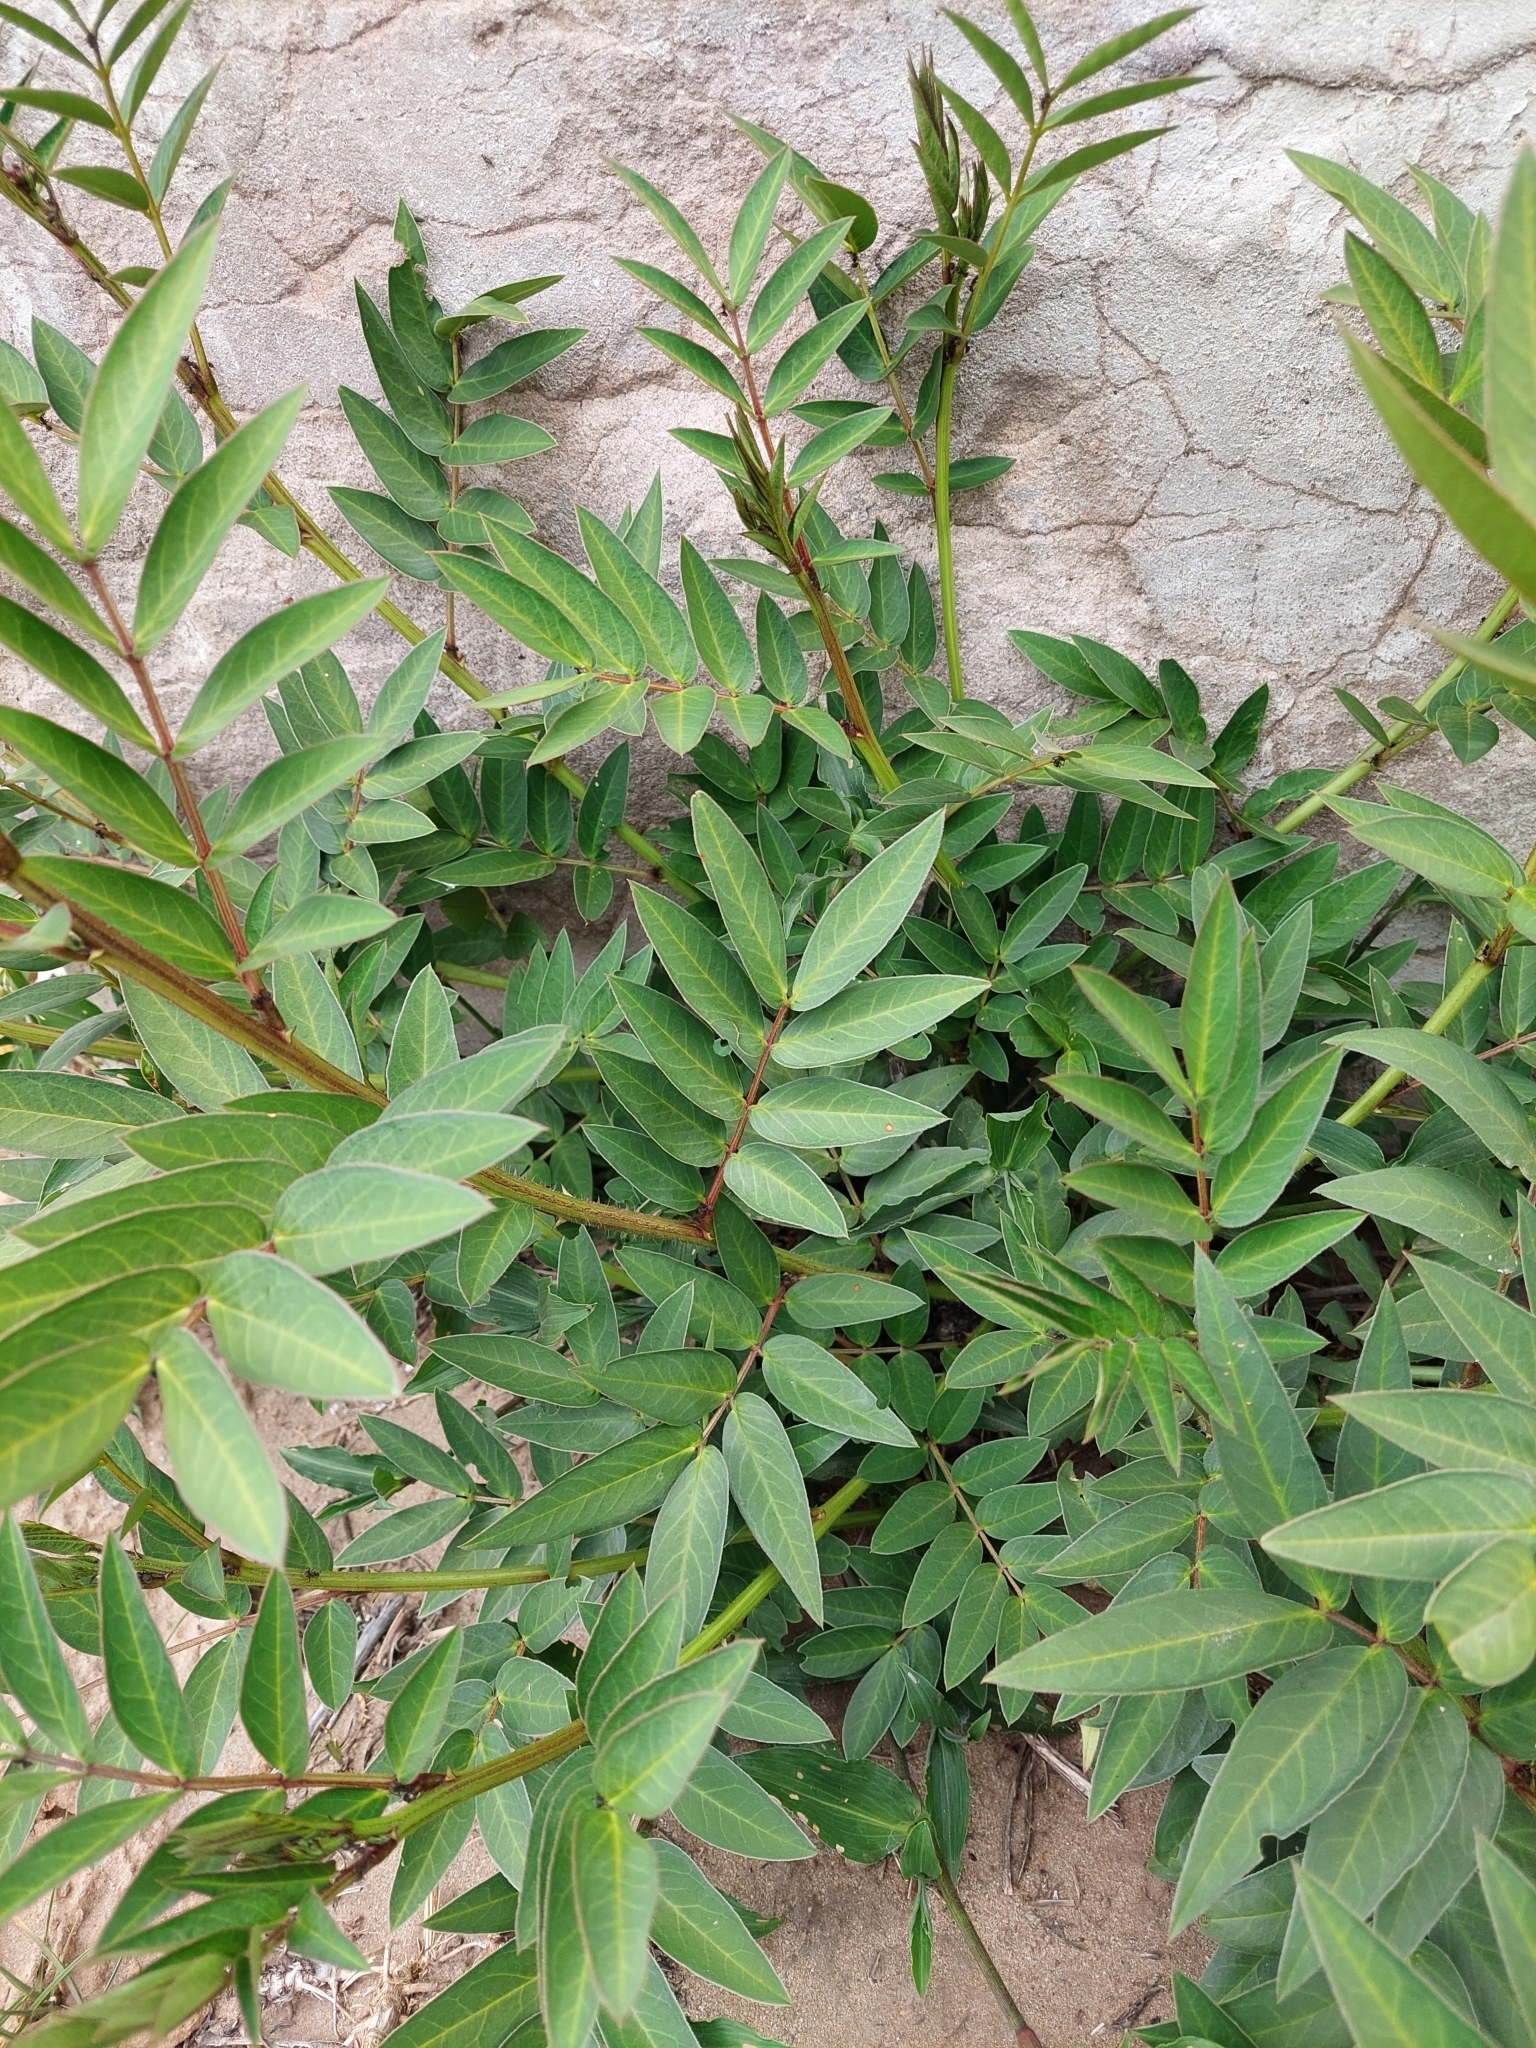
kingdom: Plantae
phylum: Tracheophyta
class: Magnoliopsida
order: Fabales
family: Fabaceae
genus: Senna
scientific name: Senna scabriuscula
